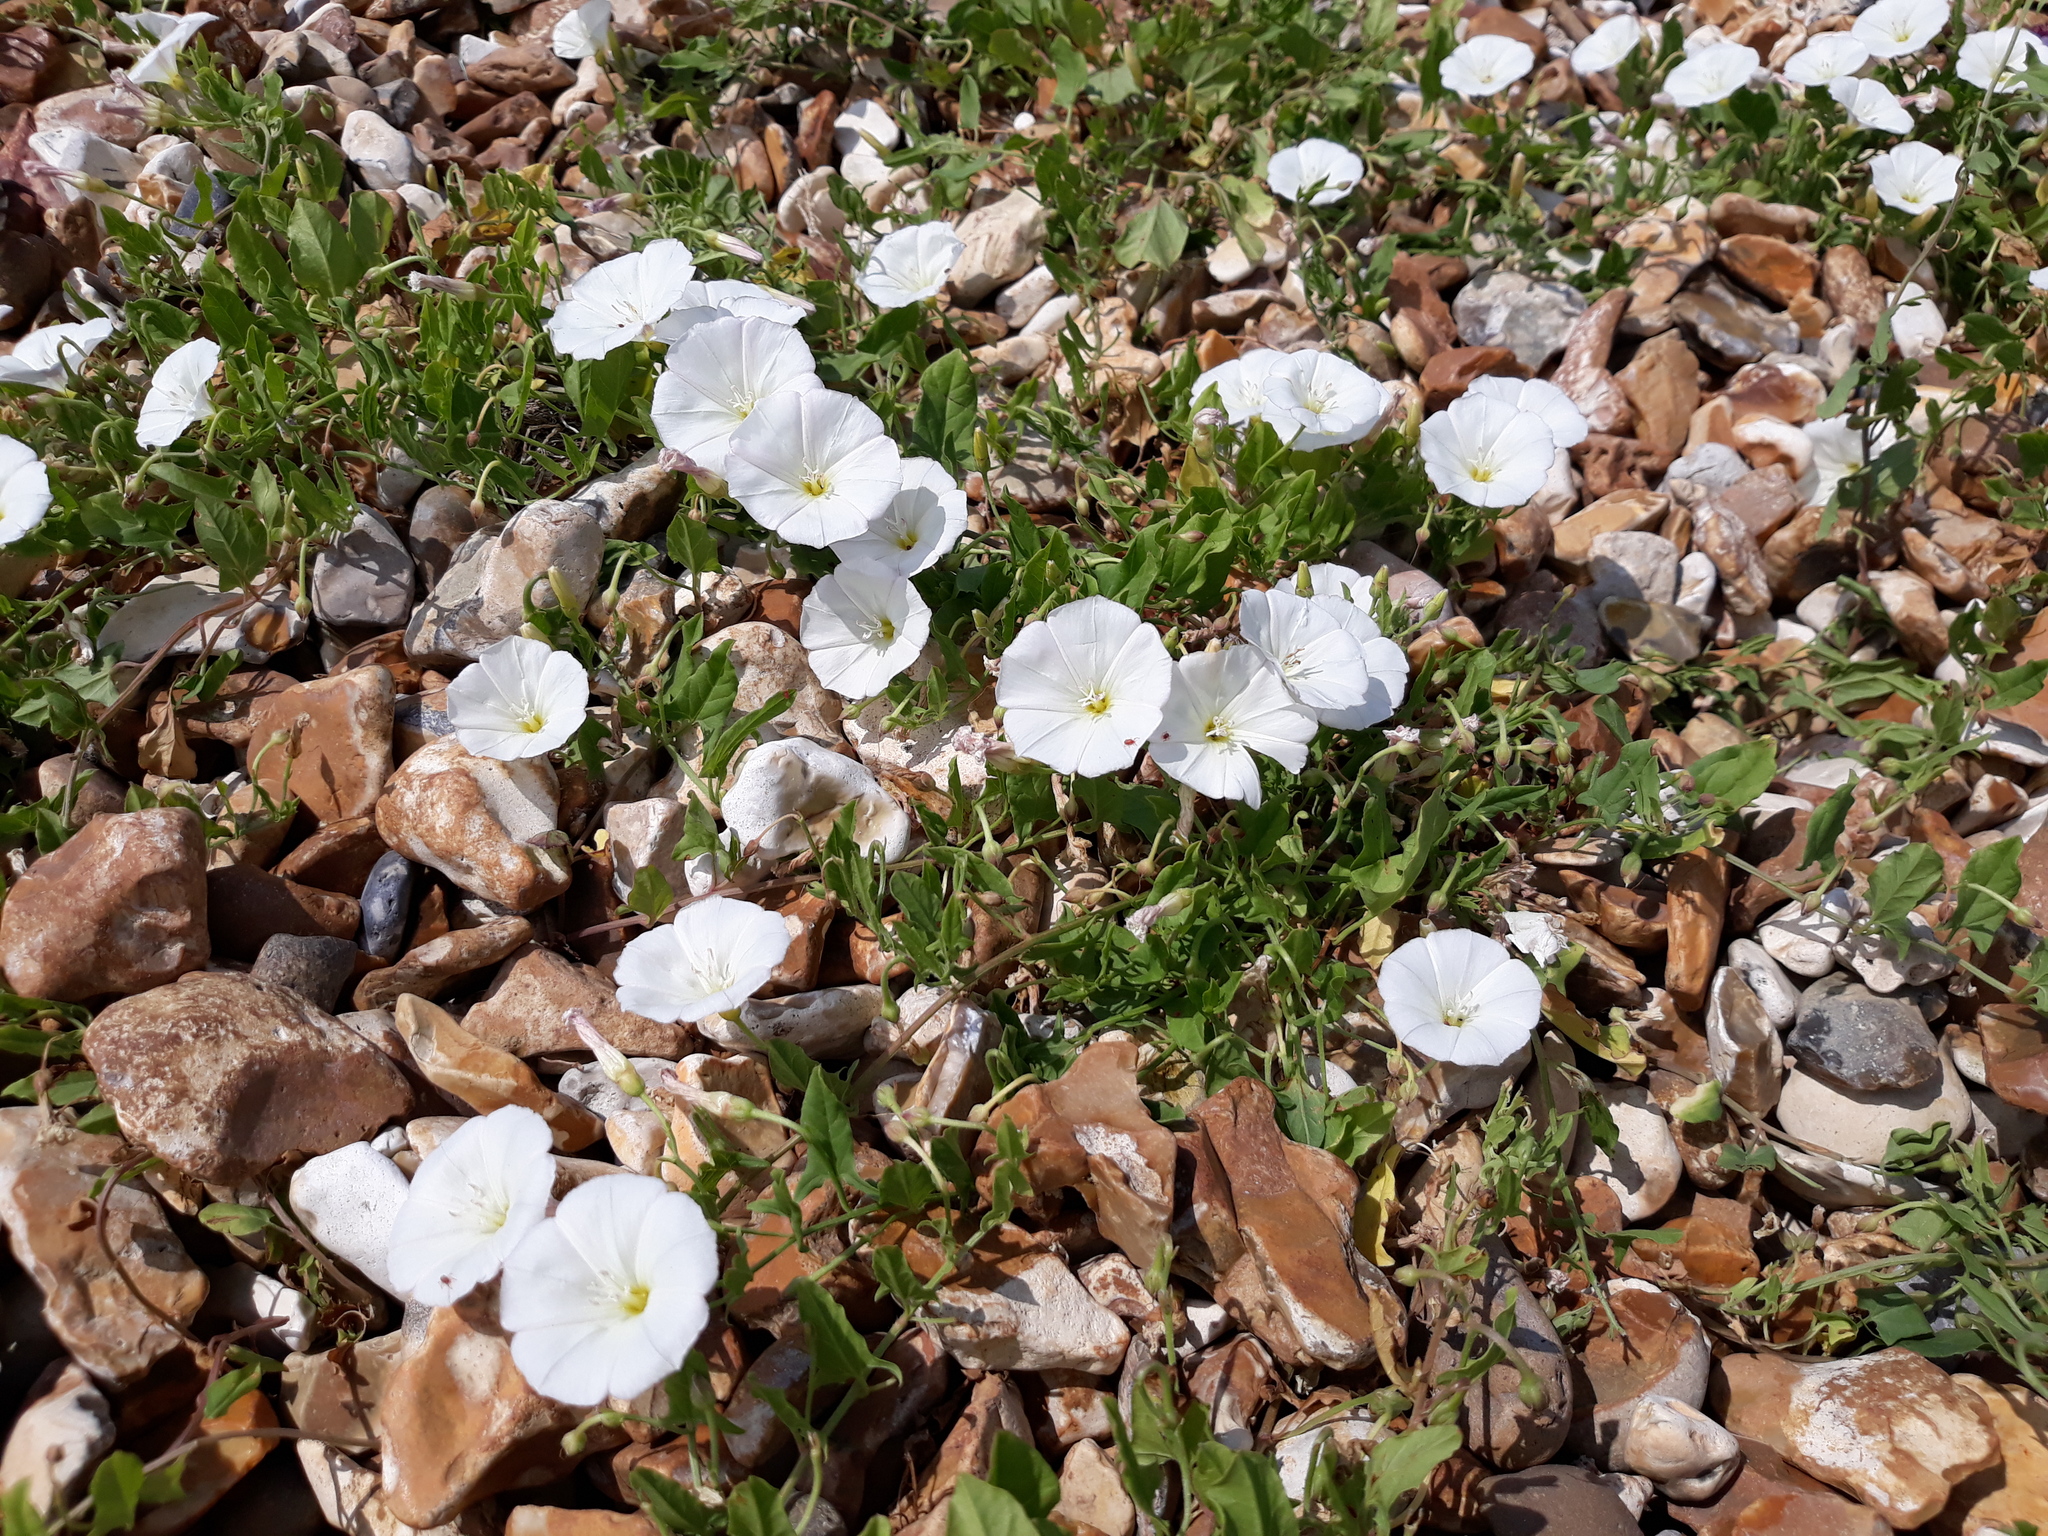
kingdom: Plantae
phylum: Tracheophyta
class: Magnoliopsida
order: Solanales
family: Convolvulaceae
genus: Convolvulus
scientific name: Convolvulus arvensis
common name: Field bindweed
